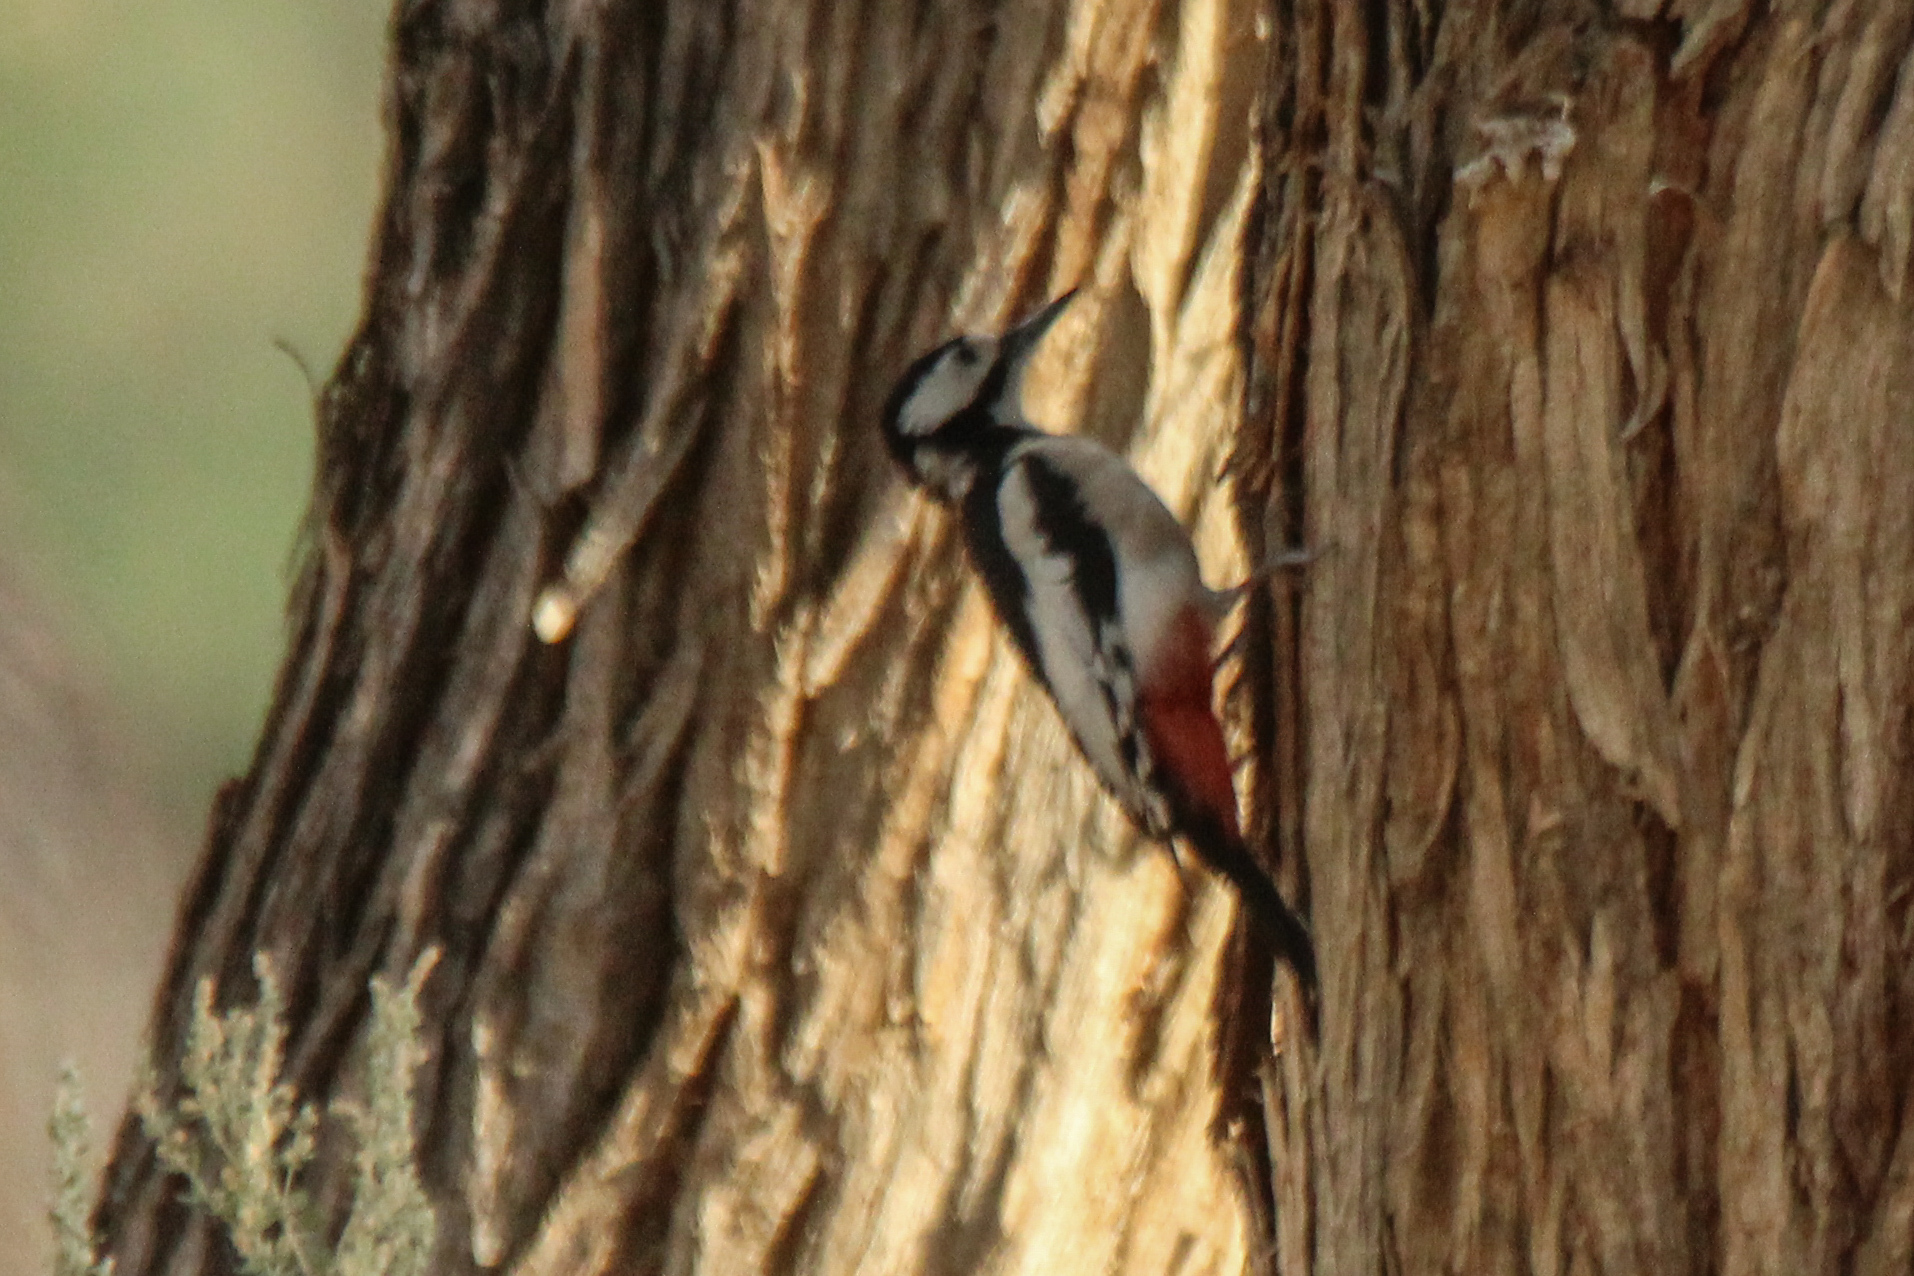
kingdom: Animalia
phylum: Chordata
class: Aves
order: Piciformes
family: Picidae
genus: Dendrocopos
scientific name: Dendrocopos leucopterus
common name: White-winged woodpecker
